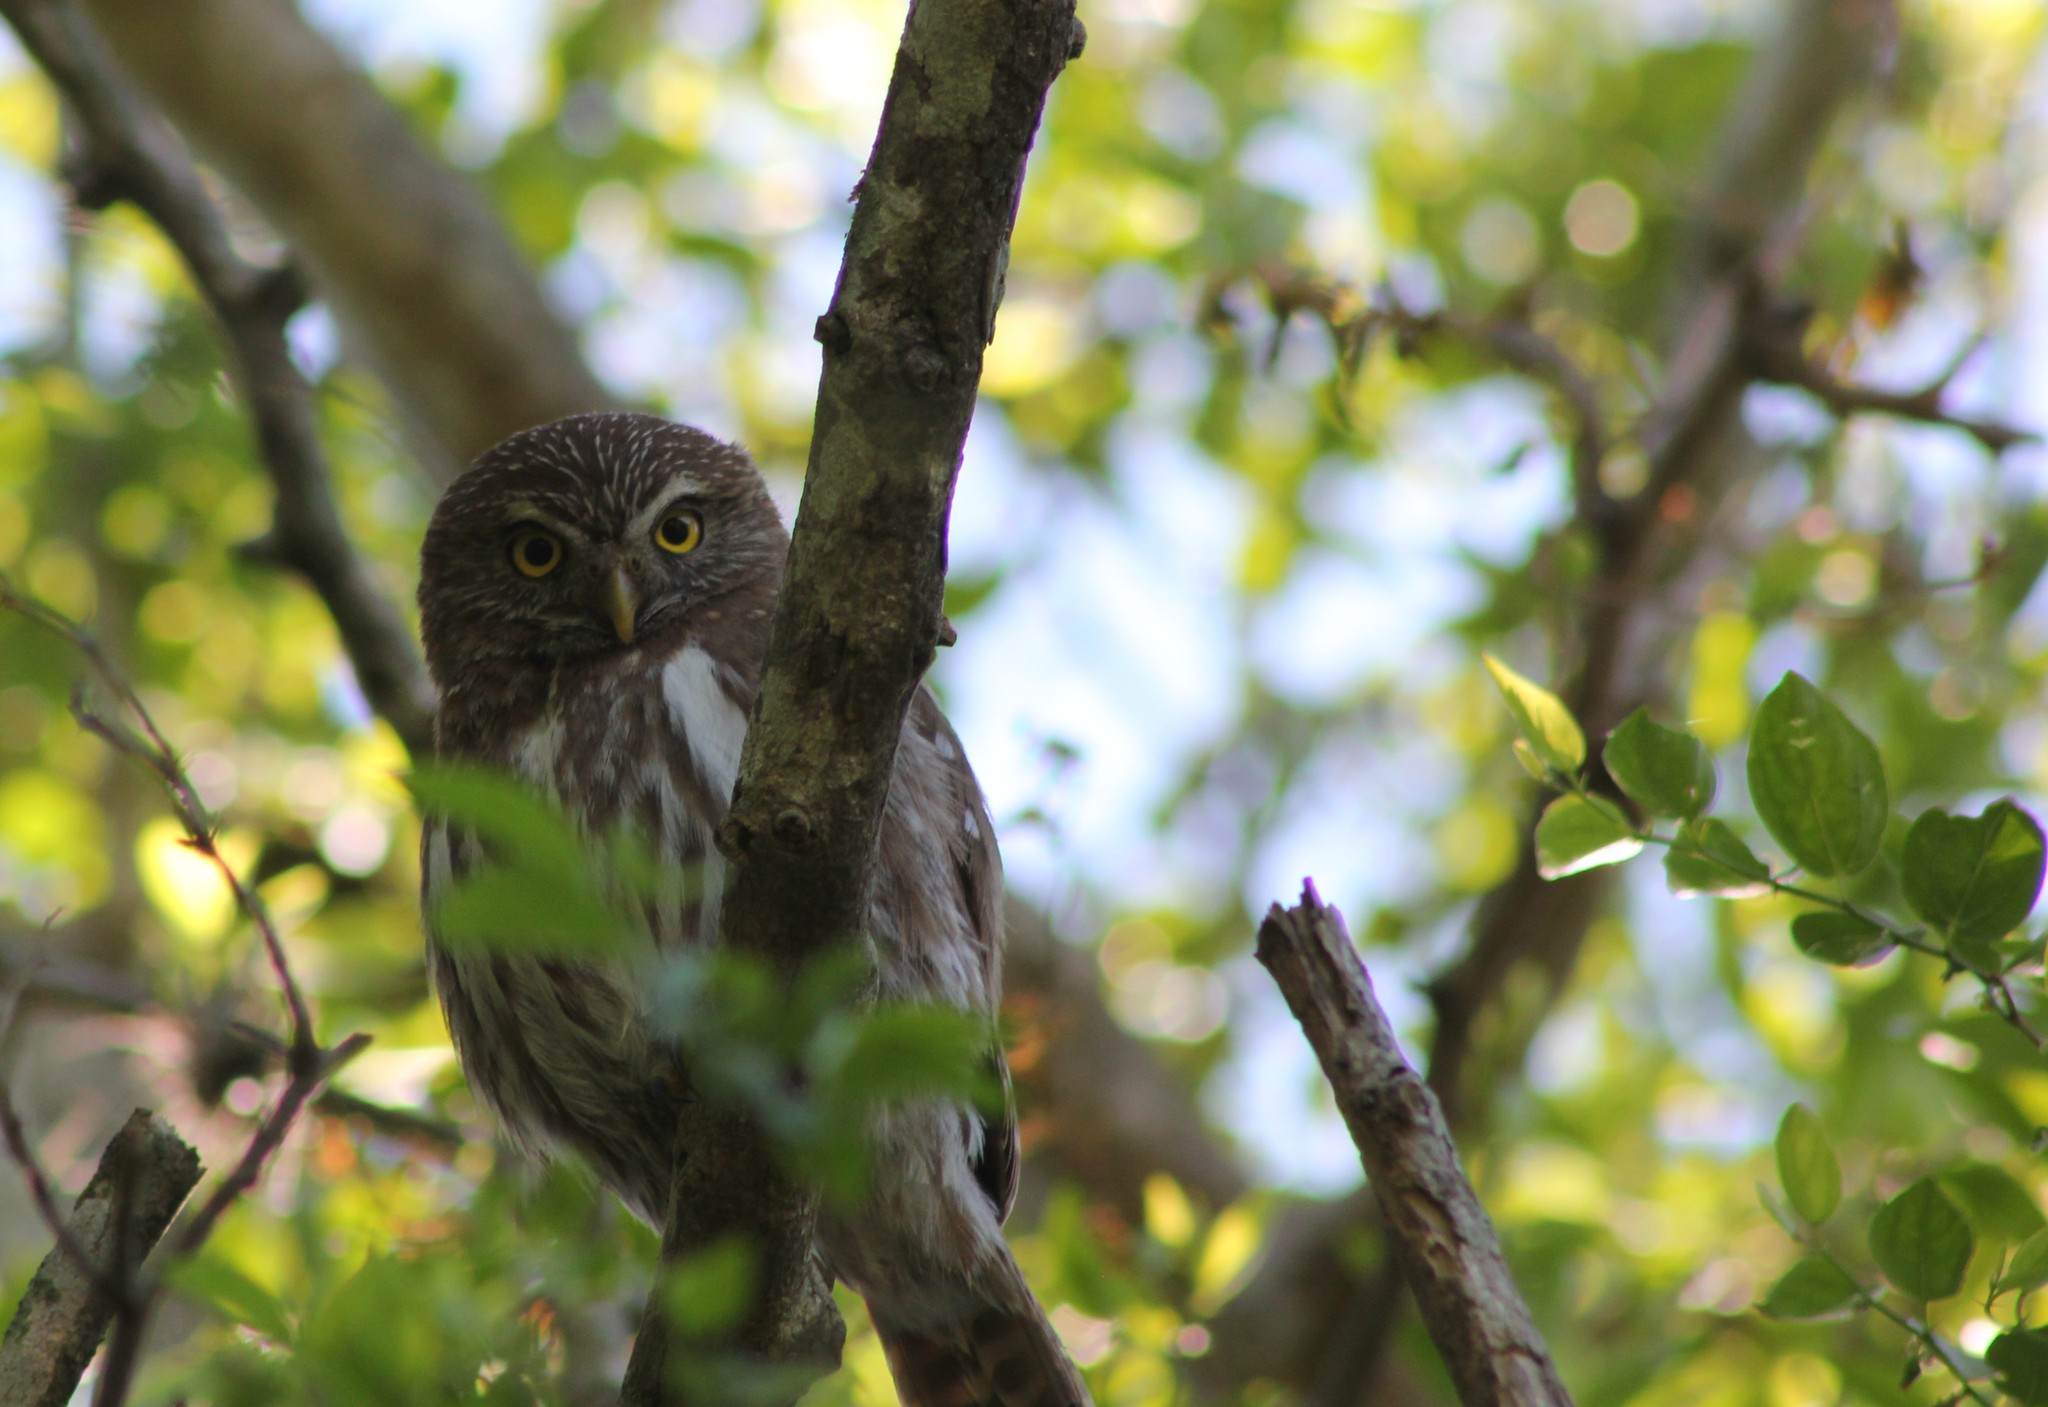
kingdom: Animalia
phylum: Chordata
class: Aves
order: Strigiformes
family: Strigidae
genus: Glaucidium
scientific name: Glaucidium brasilianum
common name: Ferruginous pygmy-owl
